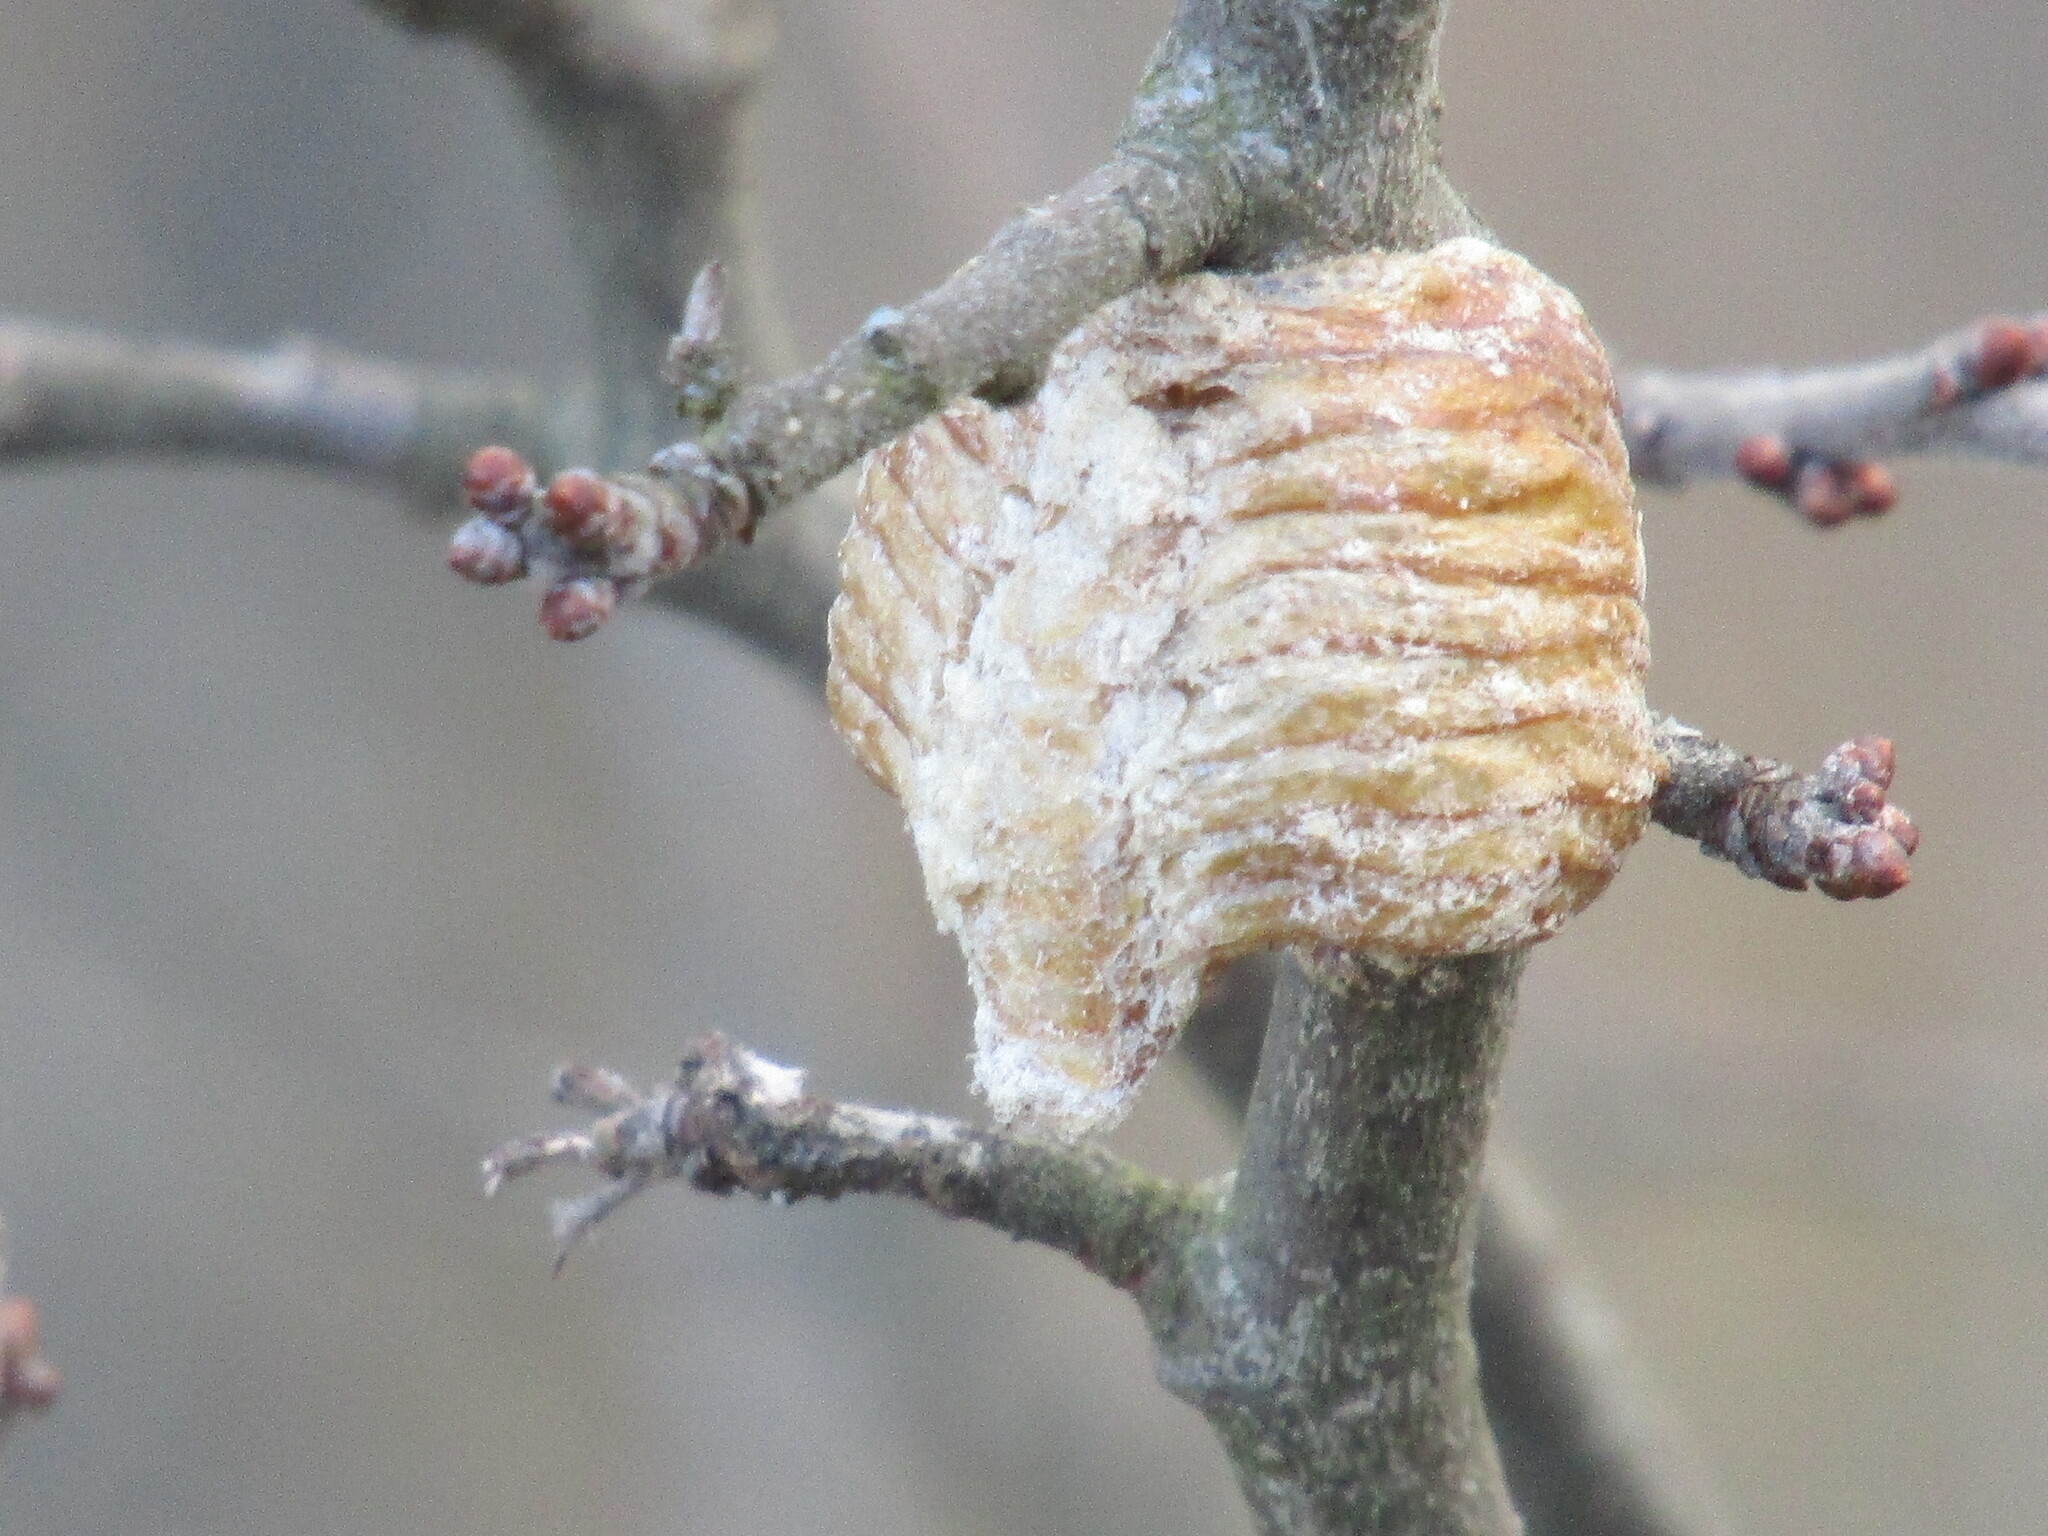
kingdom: Animalia
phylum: Arthropoda
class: Insecta
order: Mantodea
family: Mantidae
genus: Hierodula
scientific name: Hierodula transcaucasica
